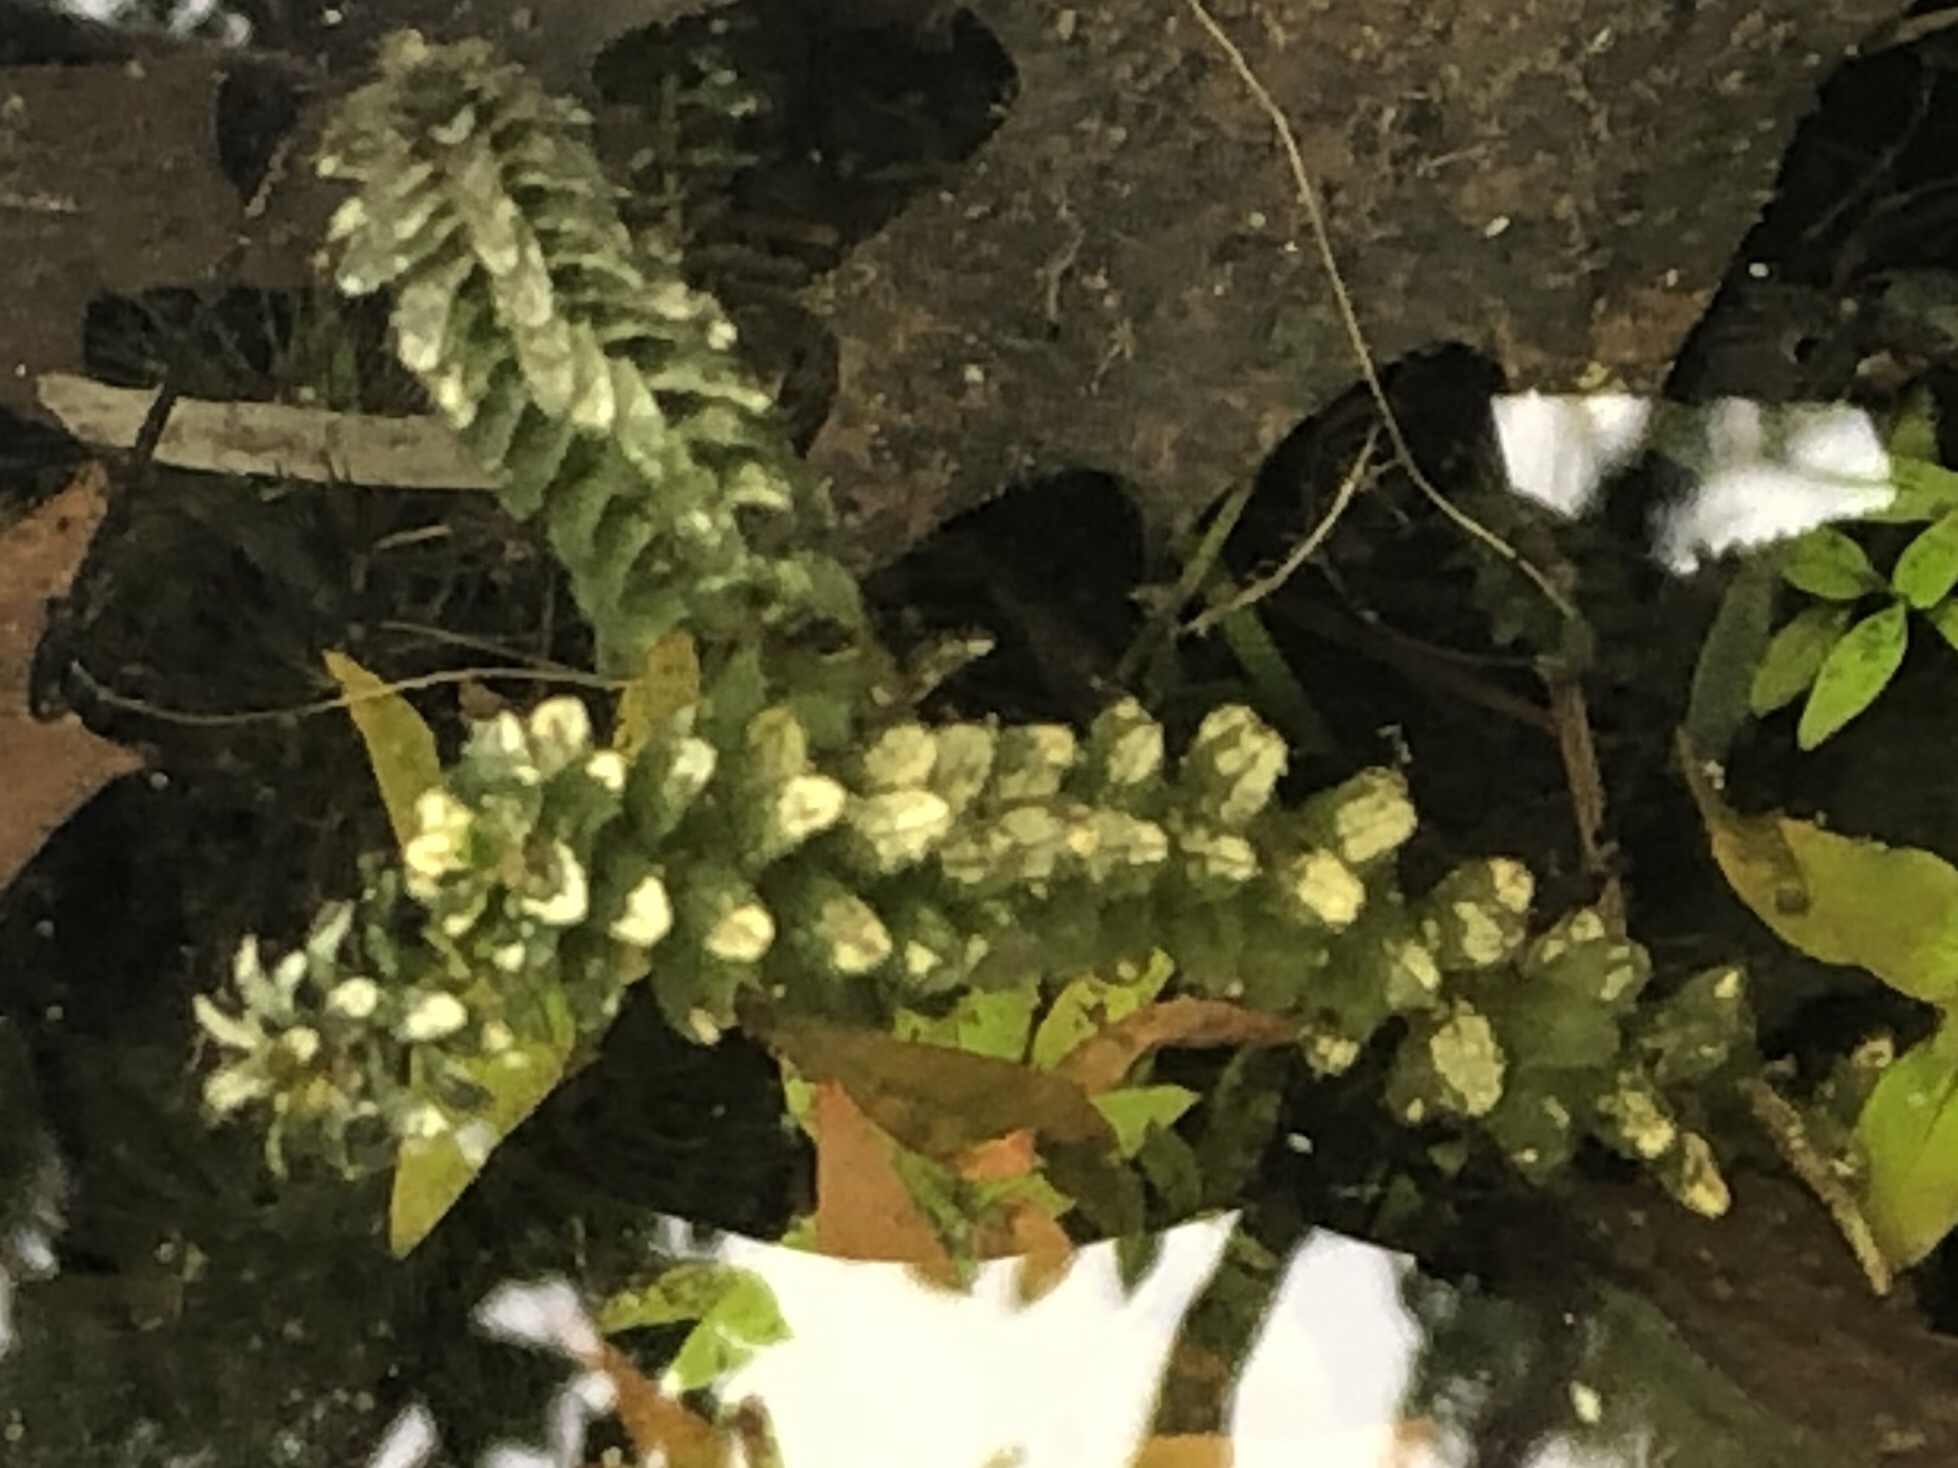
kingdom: Plantae
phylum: Tracheophyta
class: Liliopsida
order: Alismatales
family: Hydrocharitaceae
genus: Elodea
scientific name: Elodea canadensis
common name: Canadian waterweed
